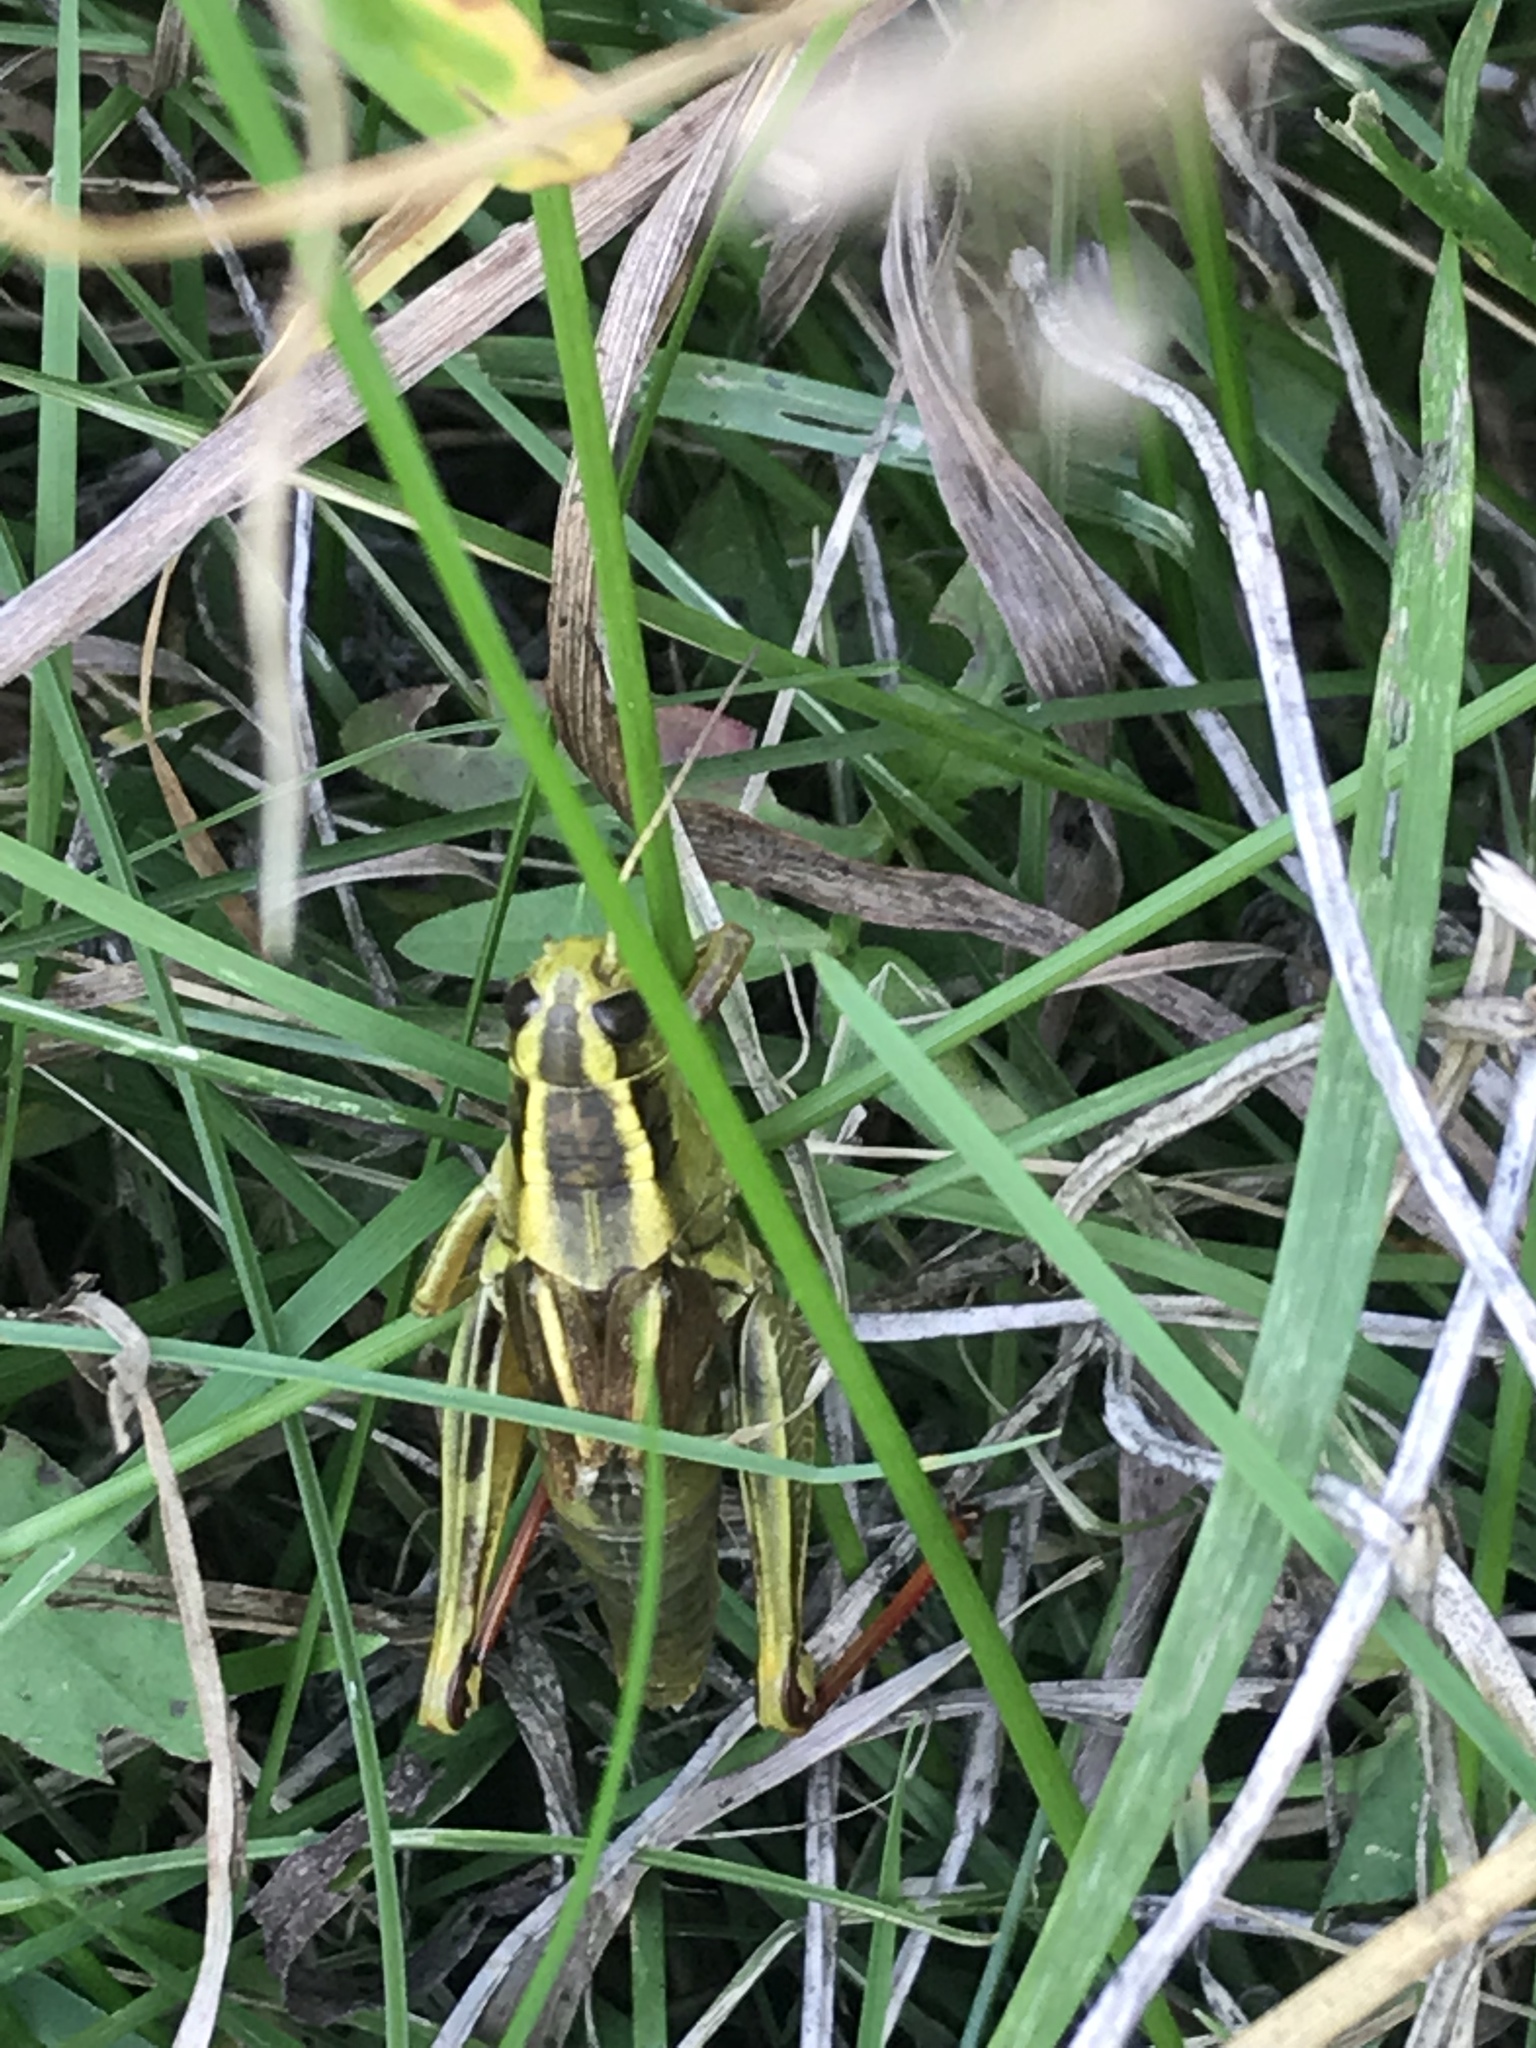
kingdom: Animalia
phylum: Arthropoda
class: Insecta
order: Orthoptera
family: Acrididae
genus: Melanoplus
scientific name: Melanoplus bivittatus
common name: Two-striped grasshopper
